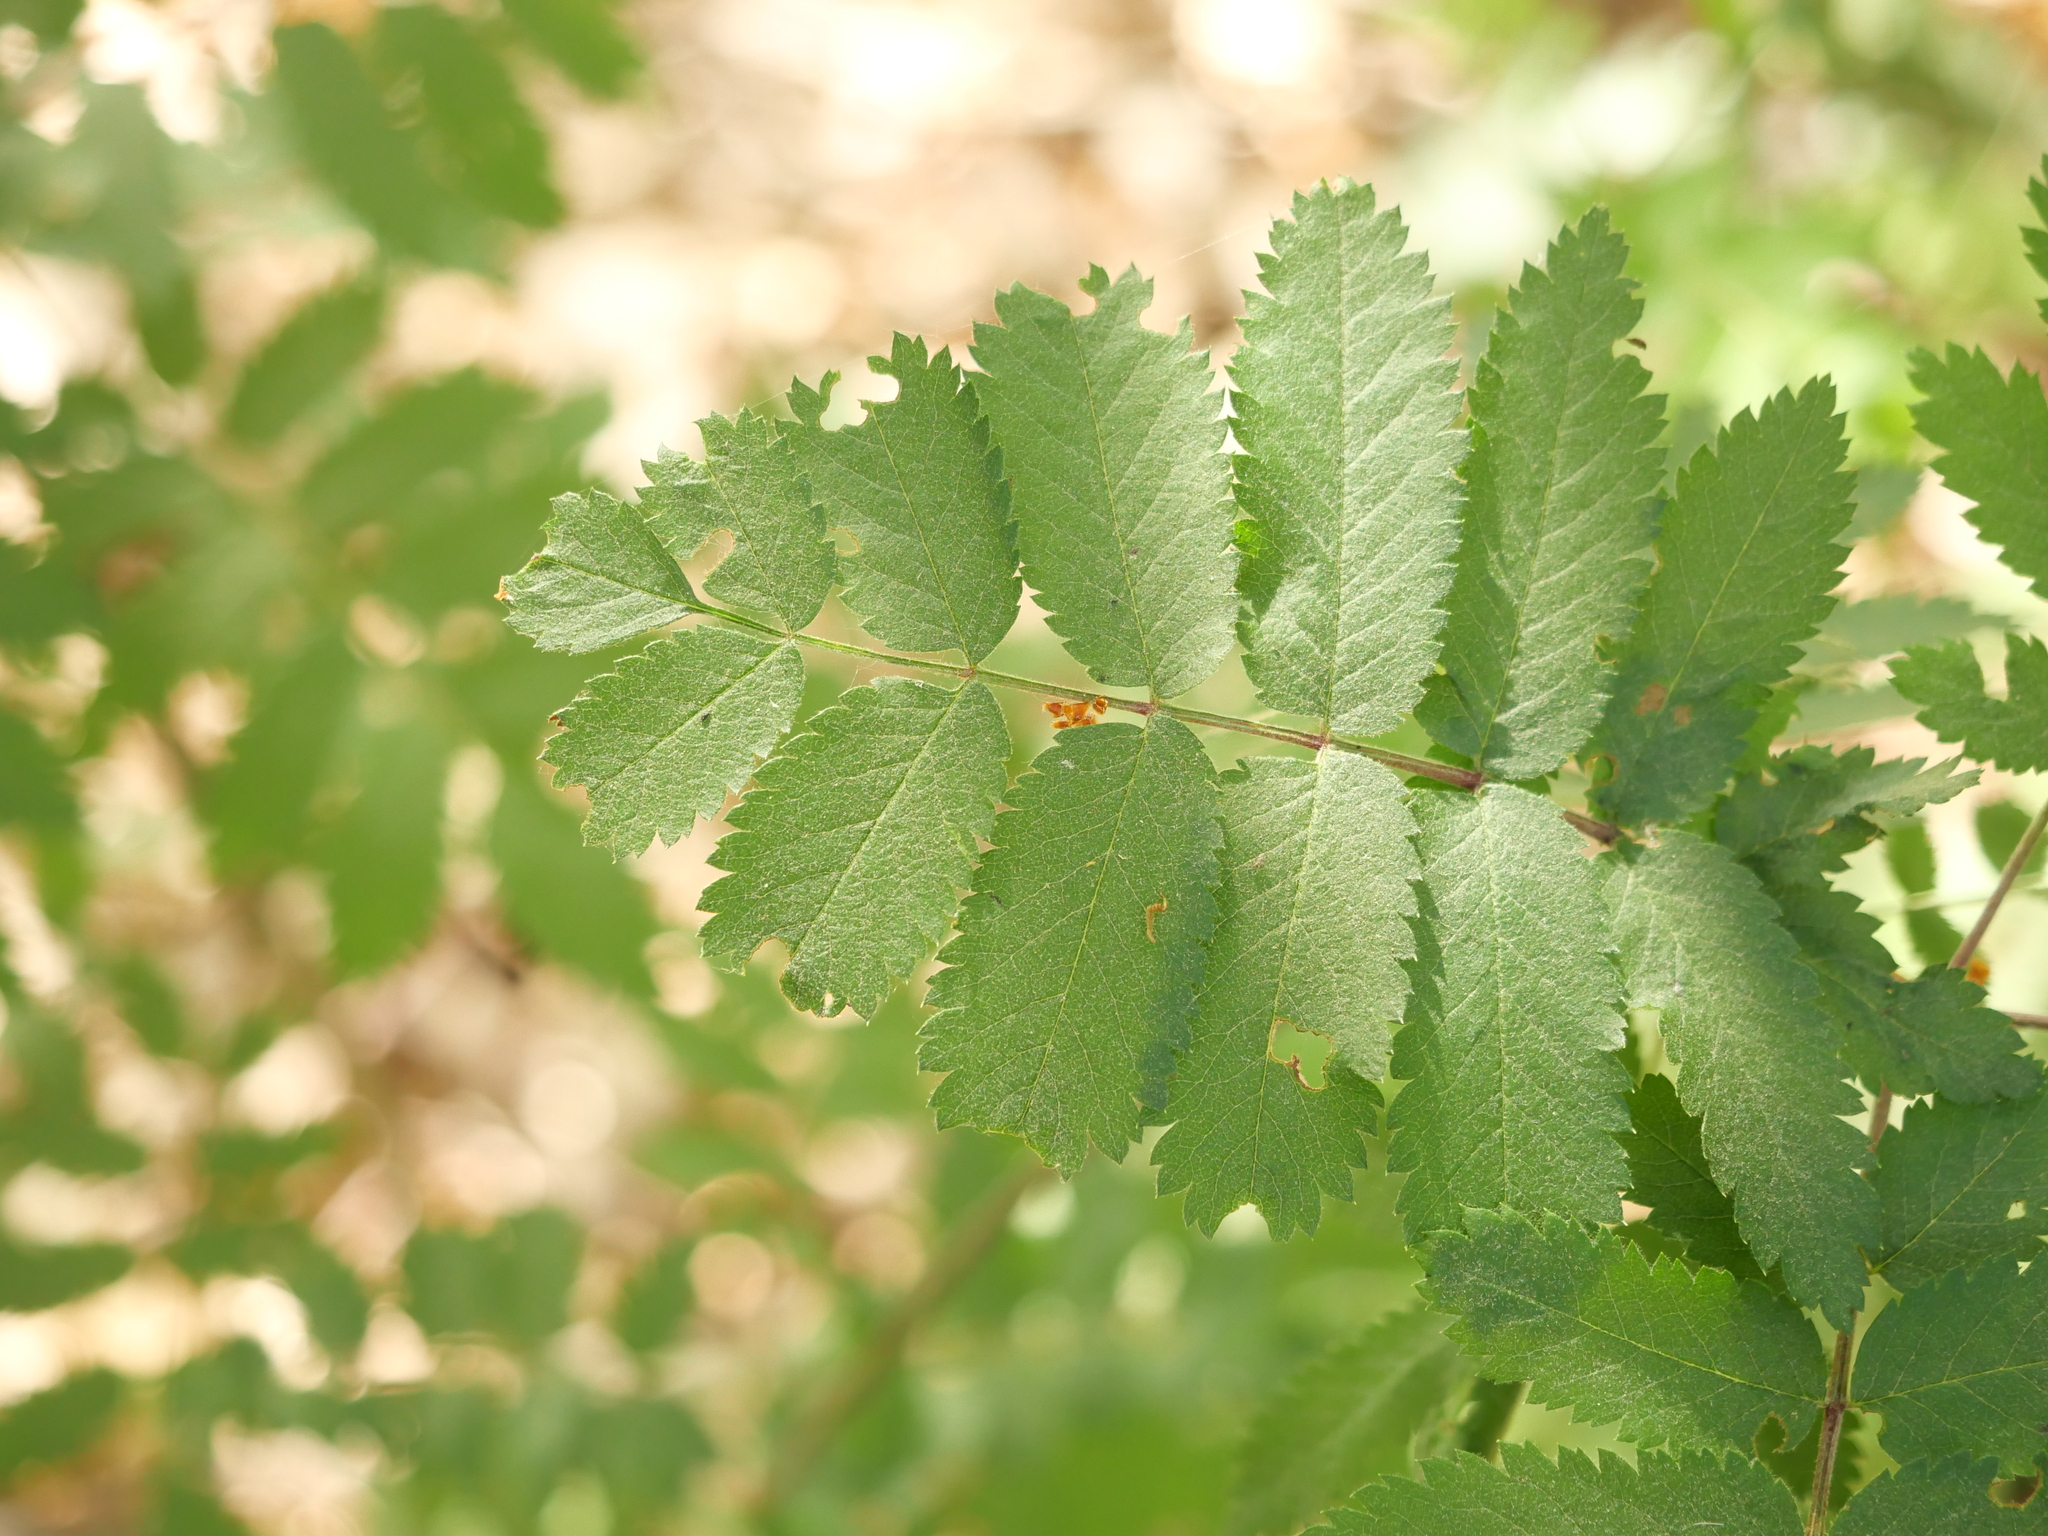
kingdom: Plantae
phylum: Tracheophyta
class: Magnoliopsida
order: Rosales
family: Rosaceae
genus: Sorbus
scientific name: Sorbus aucuparia
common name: Rowan
